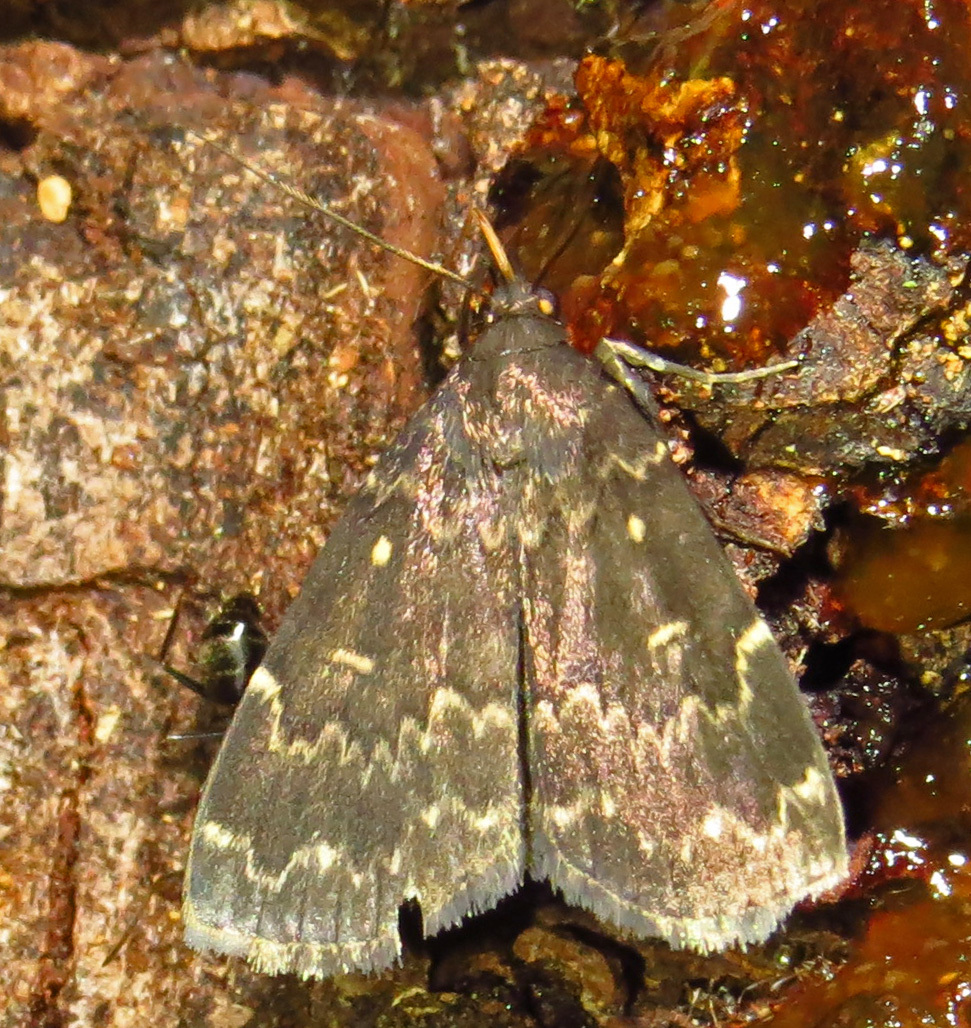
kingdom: Animalia
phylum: Arthropoda
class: Insecta
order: Lepidoptera
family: Erebidae
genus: Idia
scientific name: Idia lubricalis
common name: Twin-striped tabby
